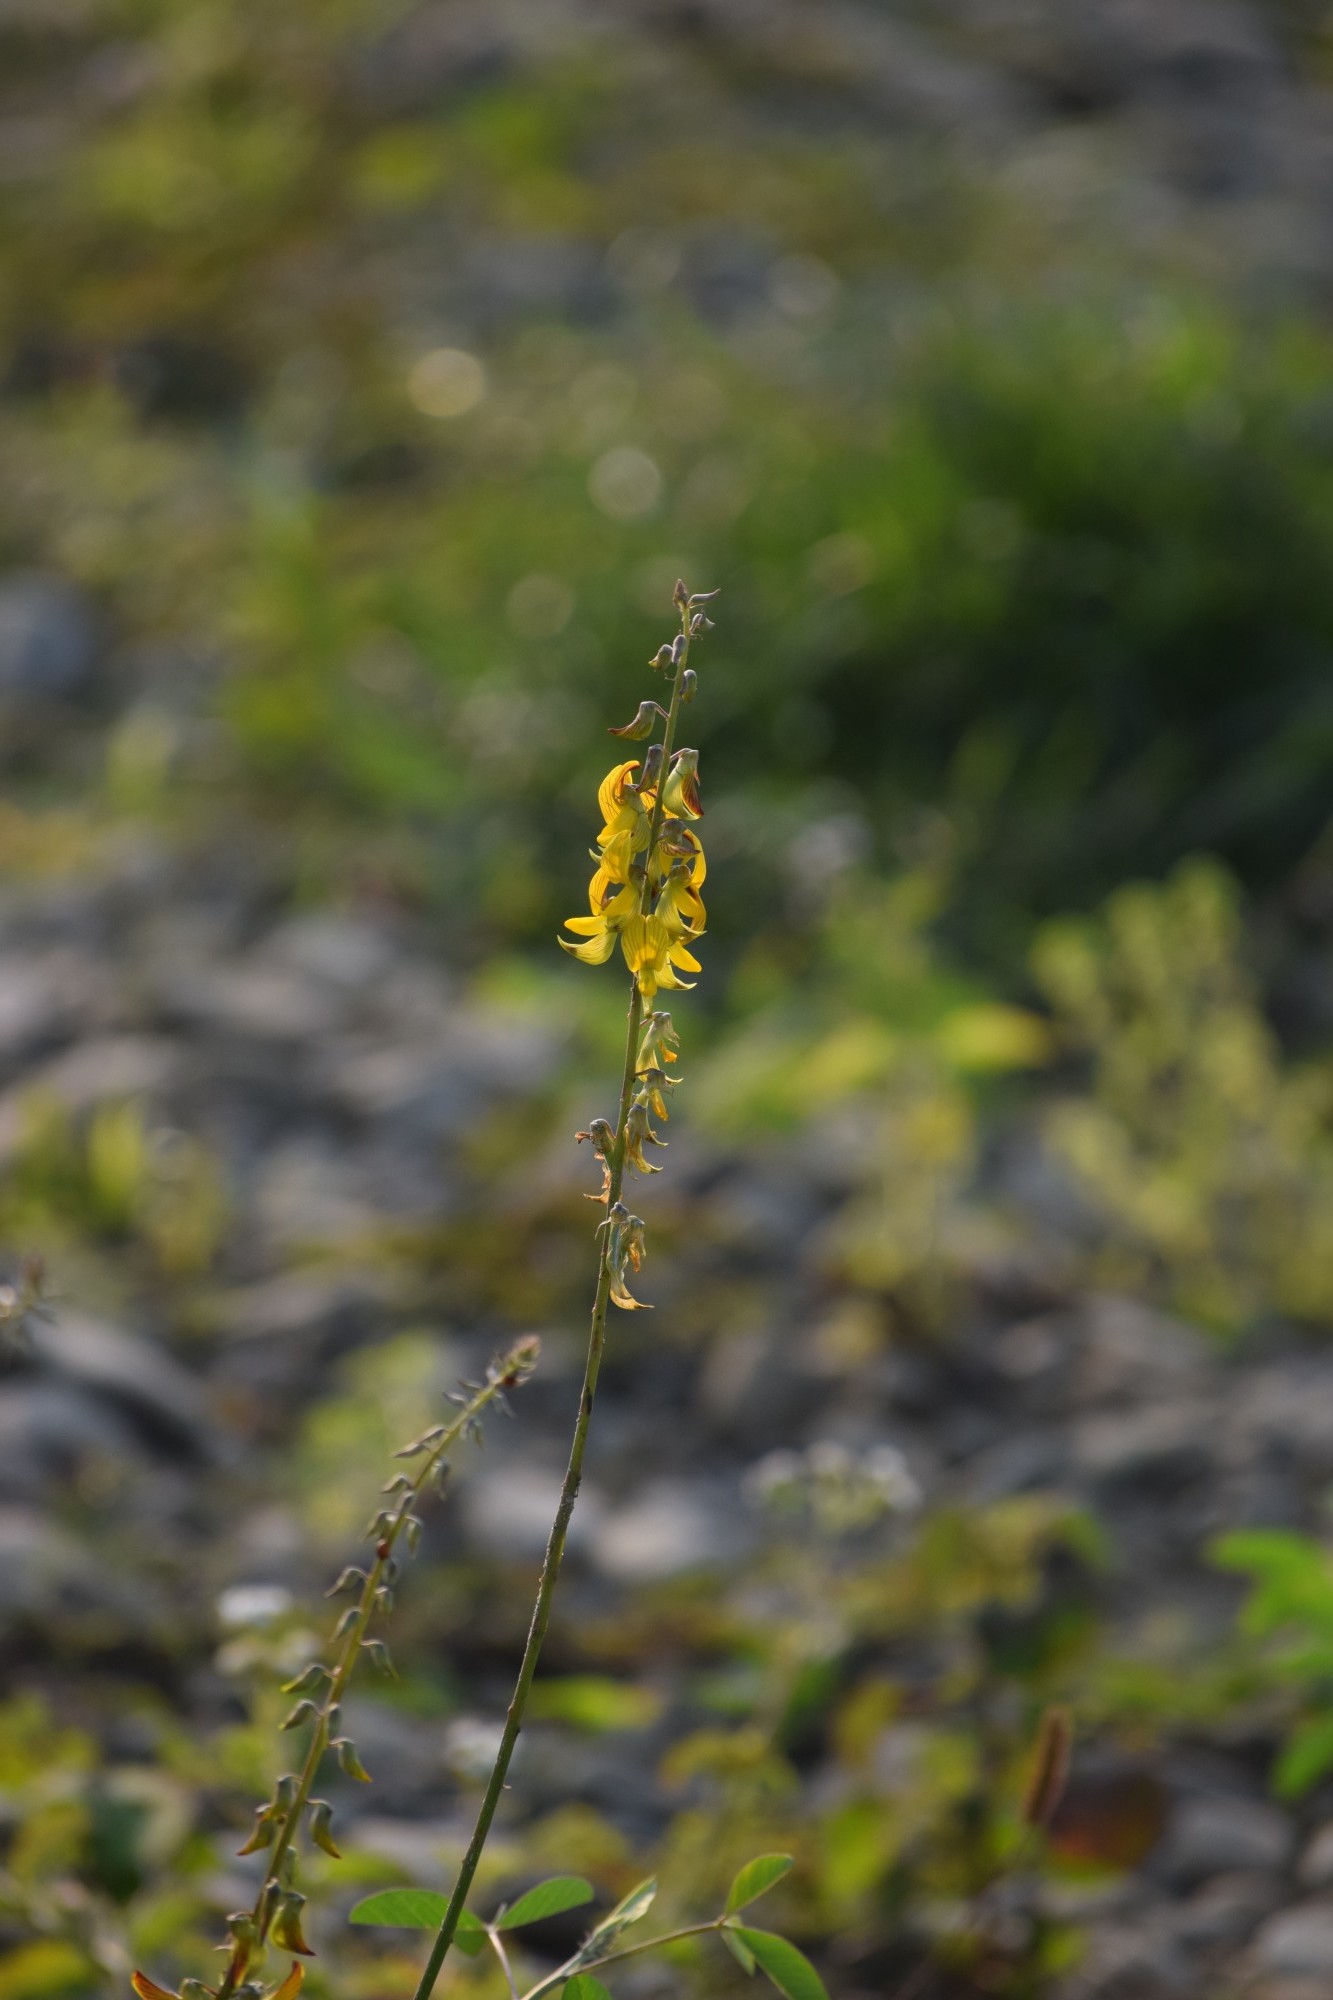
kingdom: Plantae
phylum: Tracheophyta
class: Magnoliopsida
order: Fabales
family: Fabaceae
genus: Crotalaria
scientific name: Crotalaria pallida
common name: Smooth rattlebox
